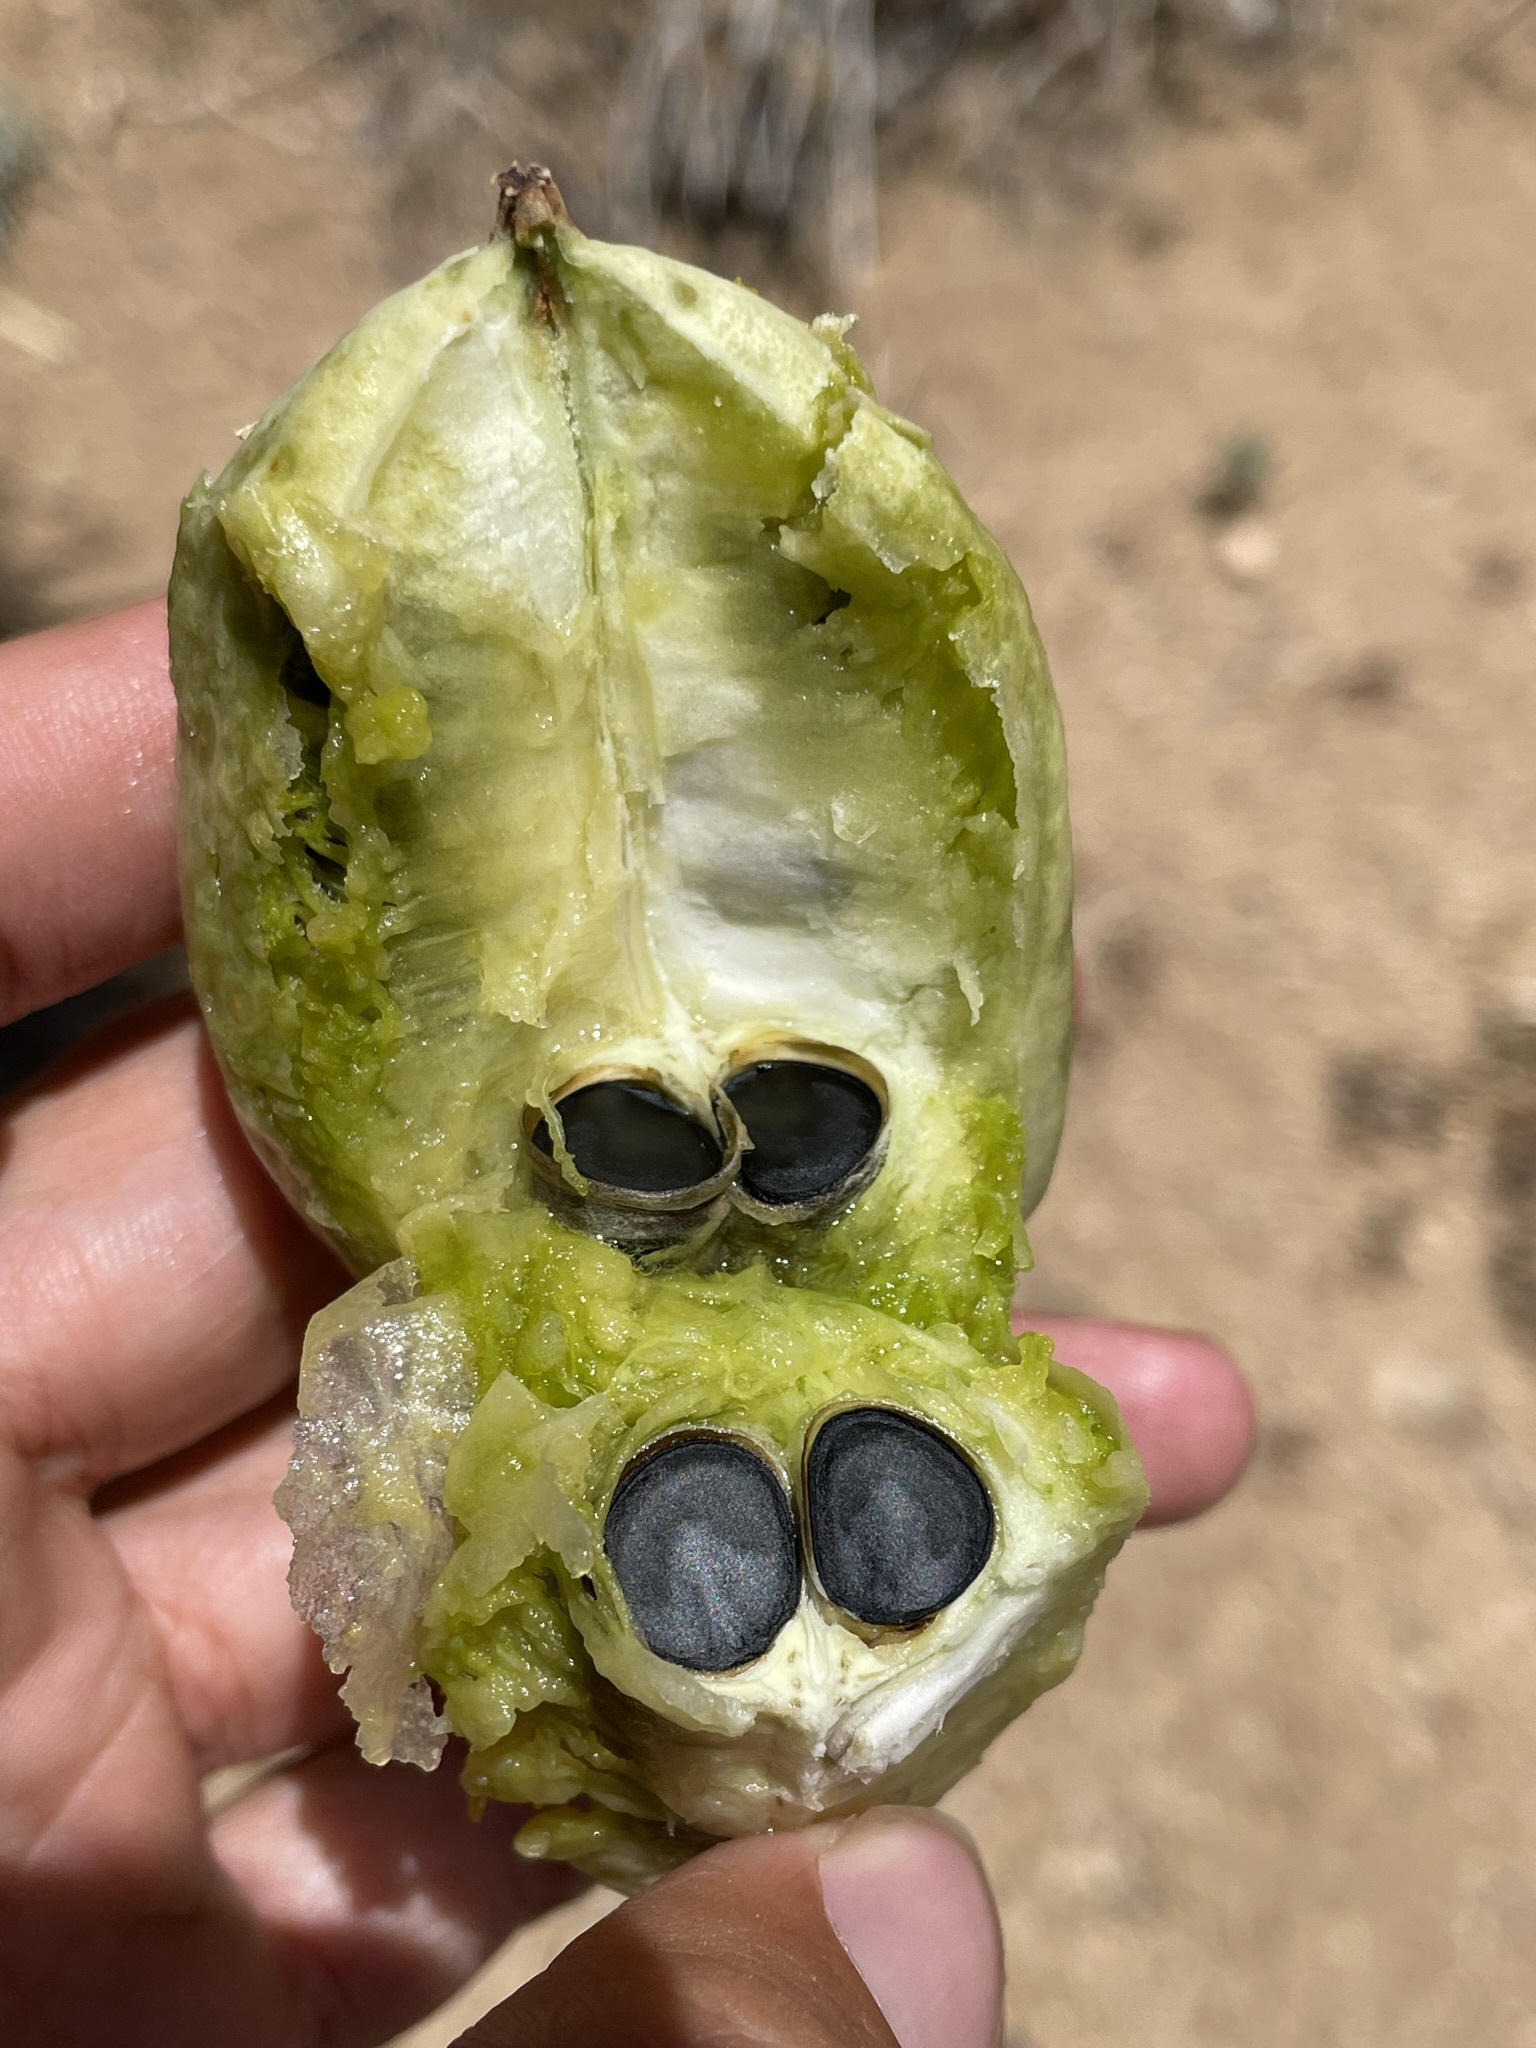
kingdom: Plantae
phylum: Tracheophyta
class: Liliopsida
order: Asparagales
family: Asparagaceae
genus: Yucca
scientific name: Yucca brevifolia
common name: Joshua tree
